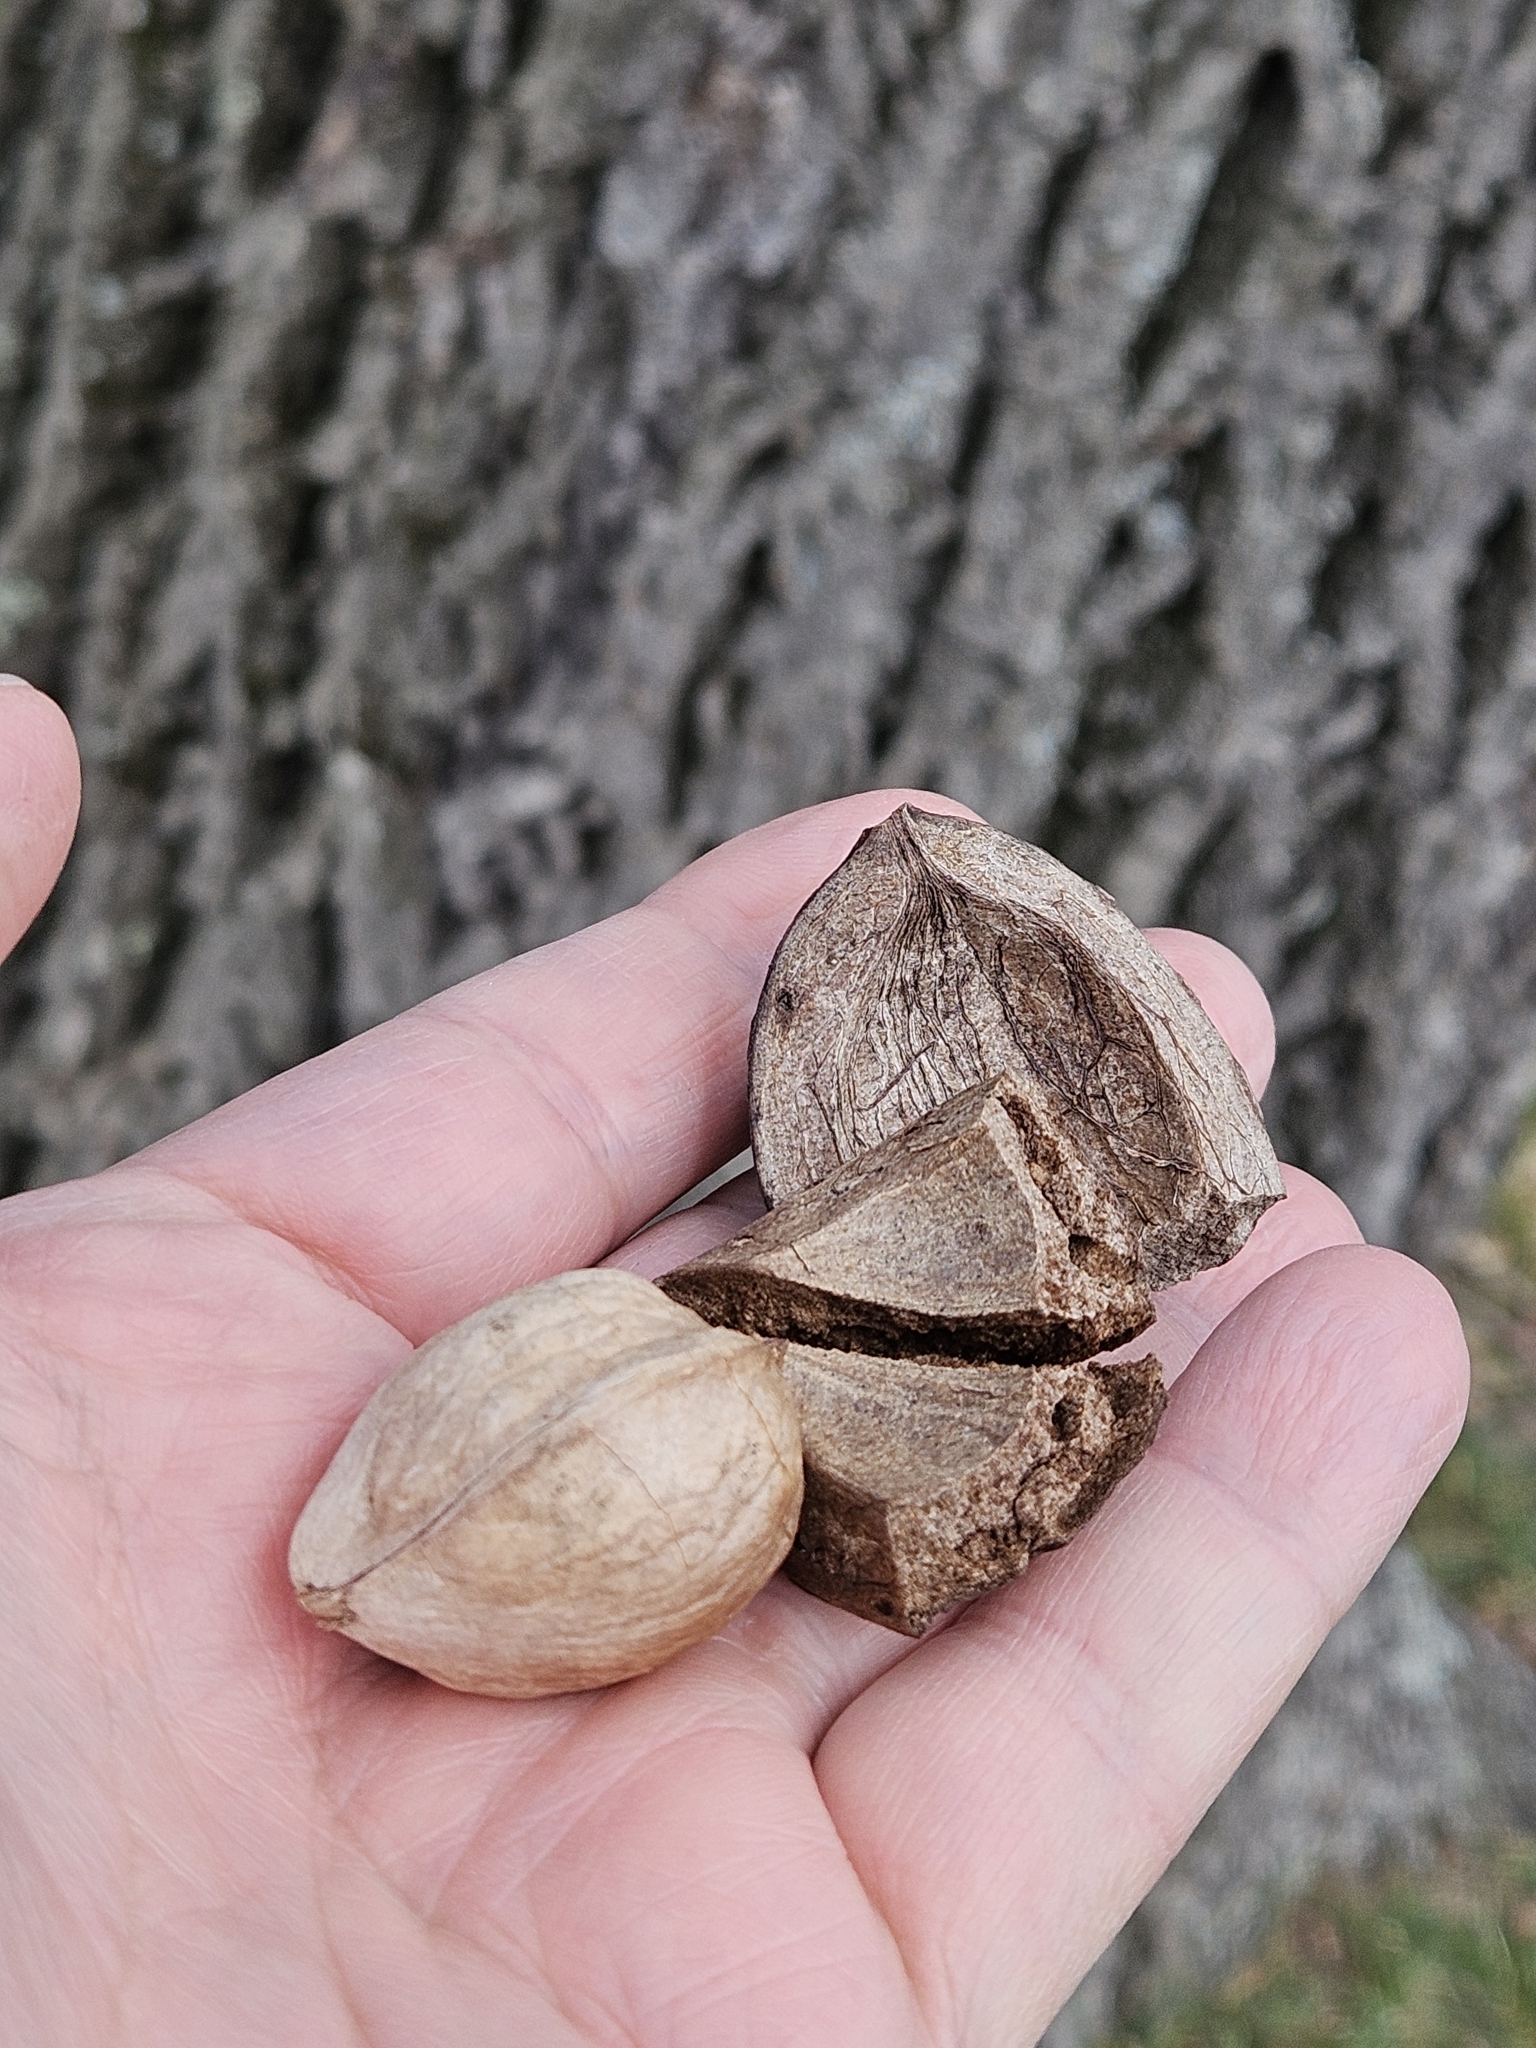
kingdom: Plantae
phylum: Tracheophyta
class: Magnoliopsida
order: Fagales
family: Juglandaceae
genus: Carya
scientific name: Carya alba
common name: Mockernut hickory
